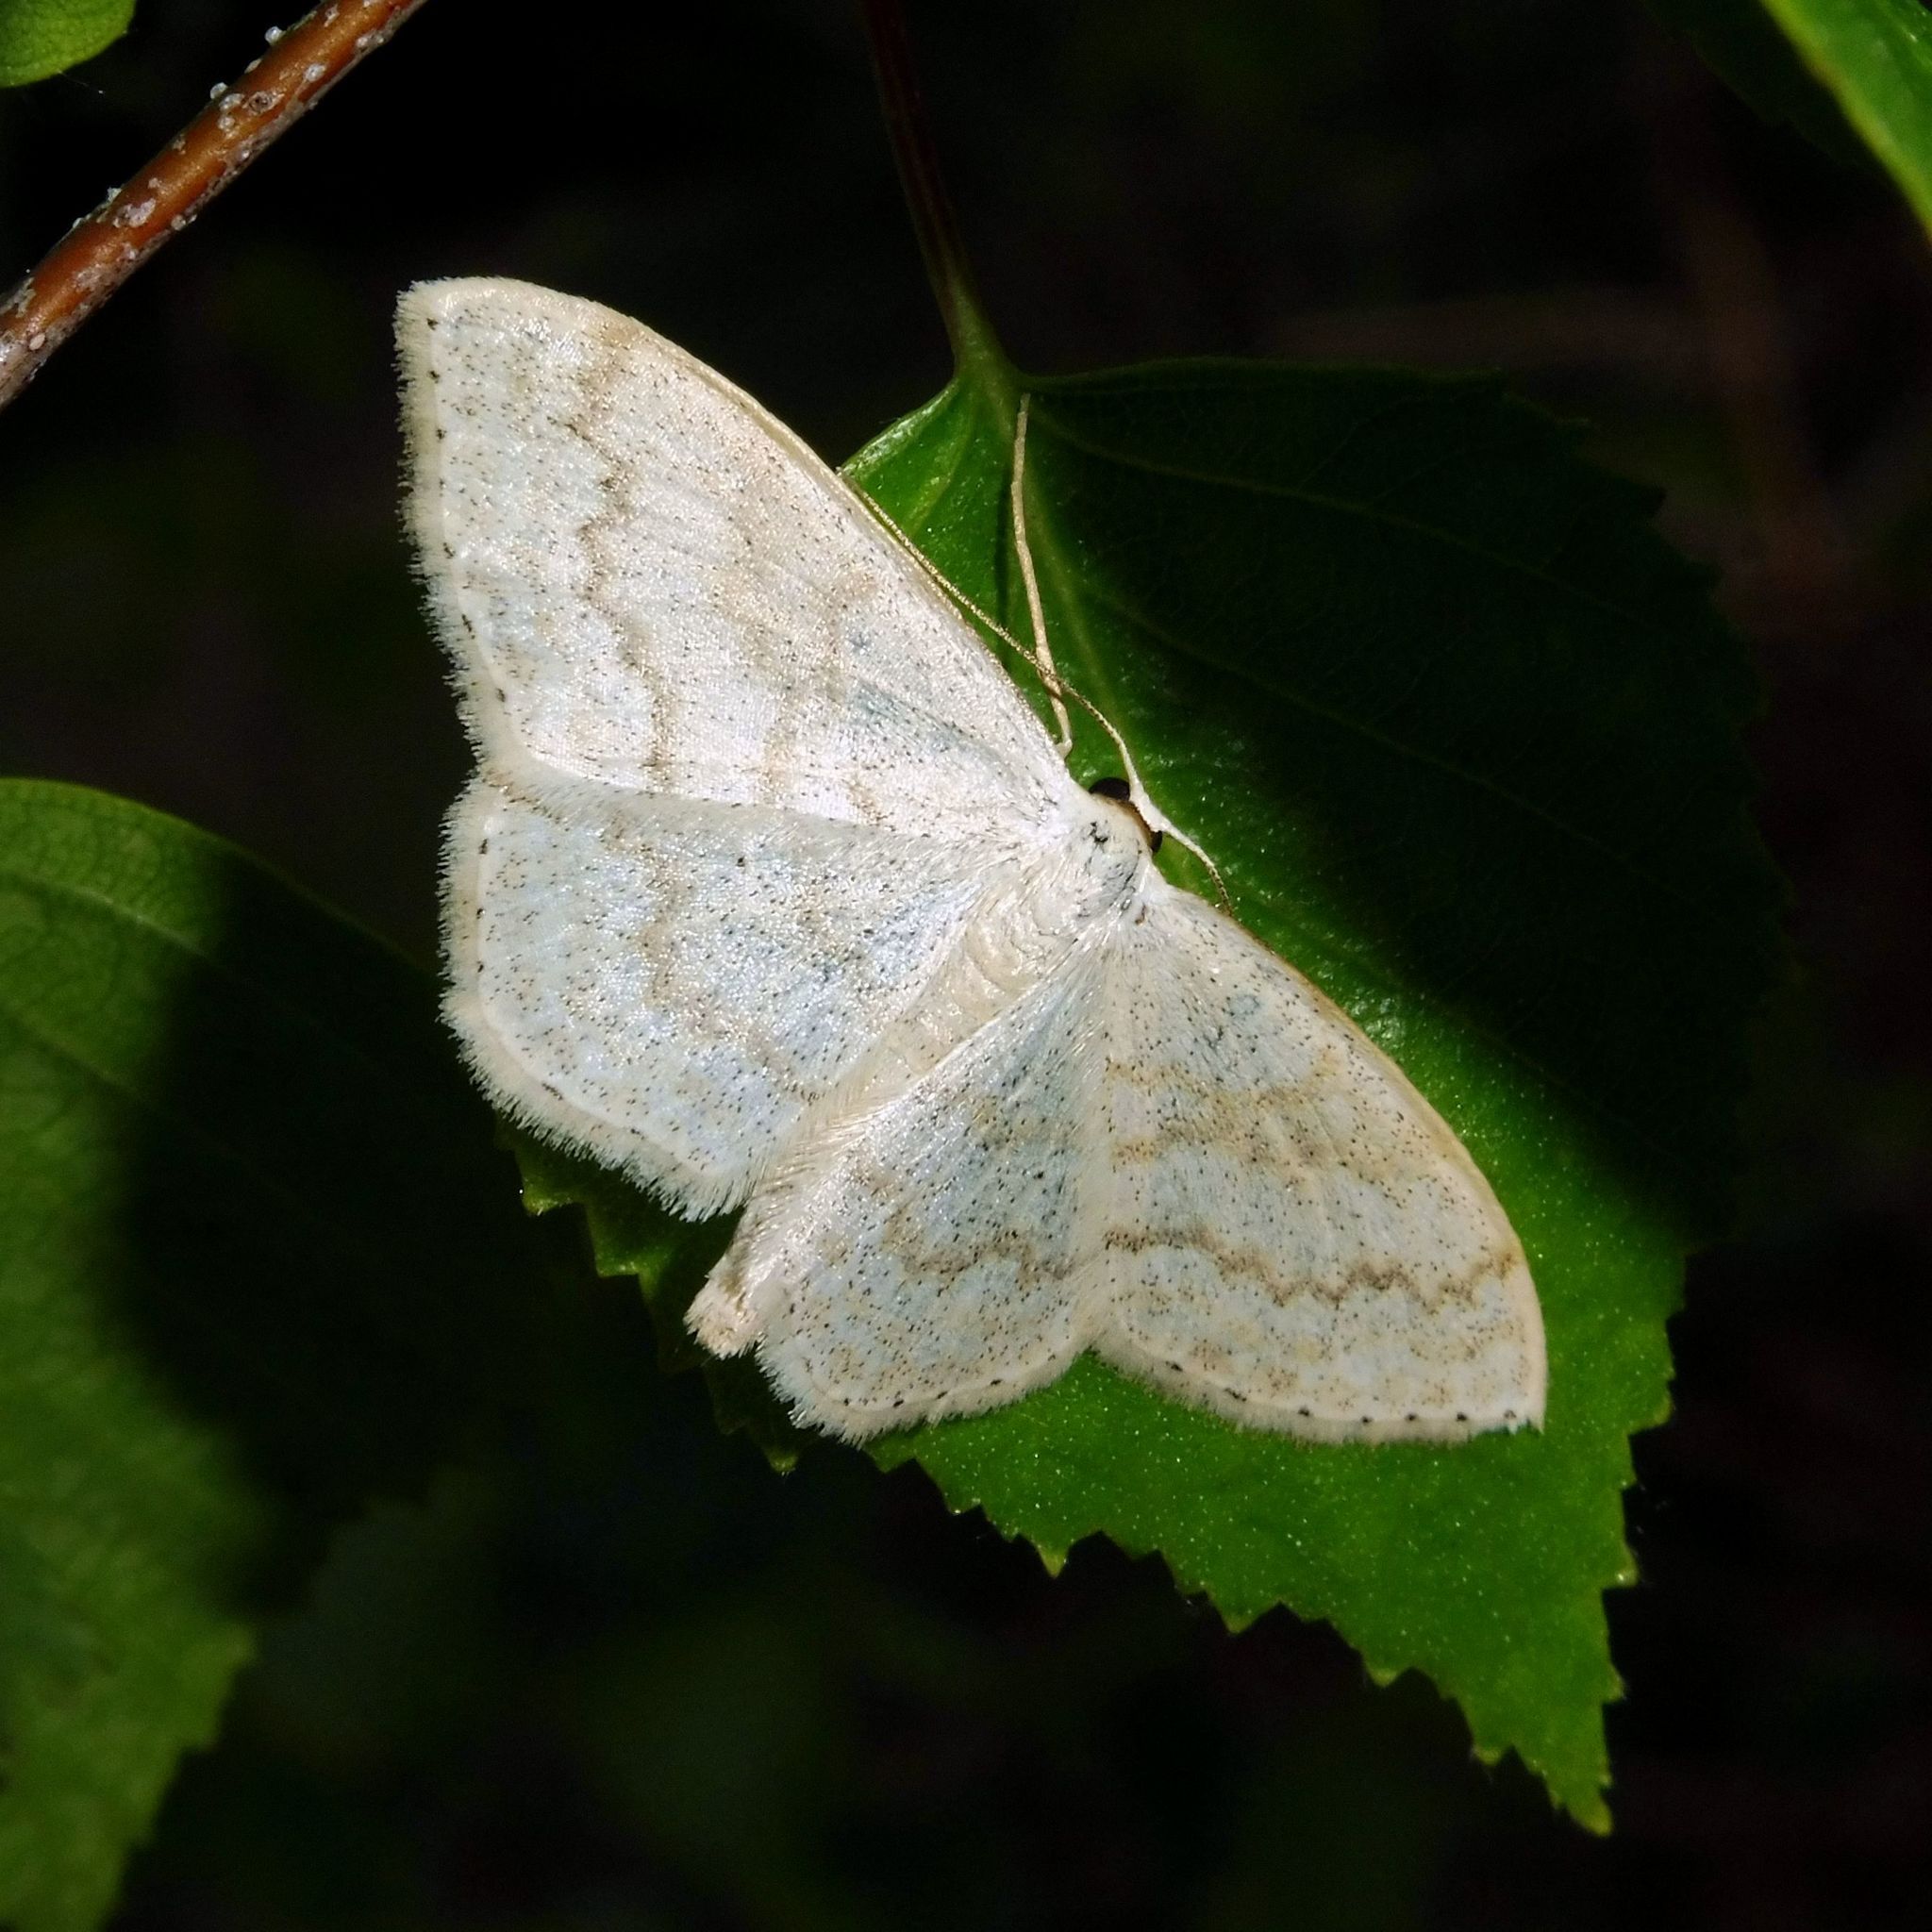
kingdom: Animalia
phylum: Arthropoda
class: Insecta
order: Lepidoptera
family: Geometridae
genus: Scopula
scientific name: Scopula floslactata
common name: Cream wave
